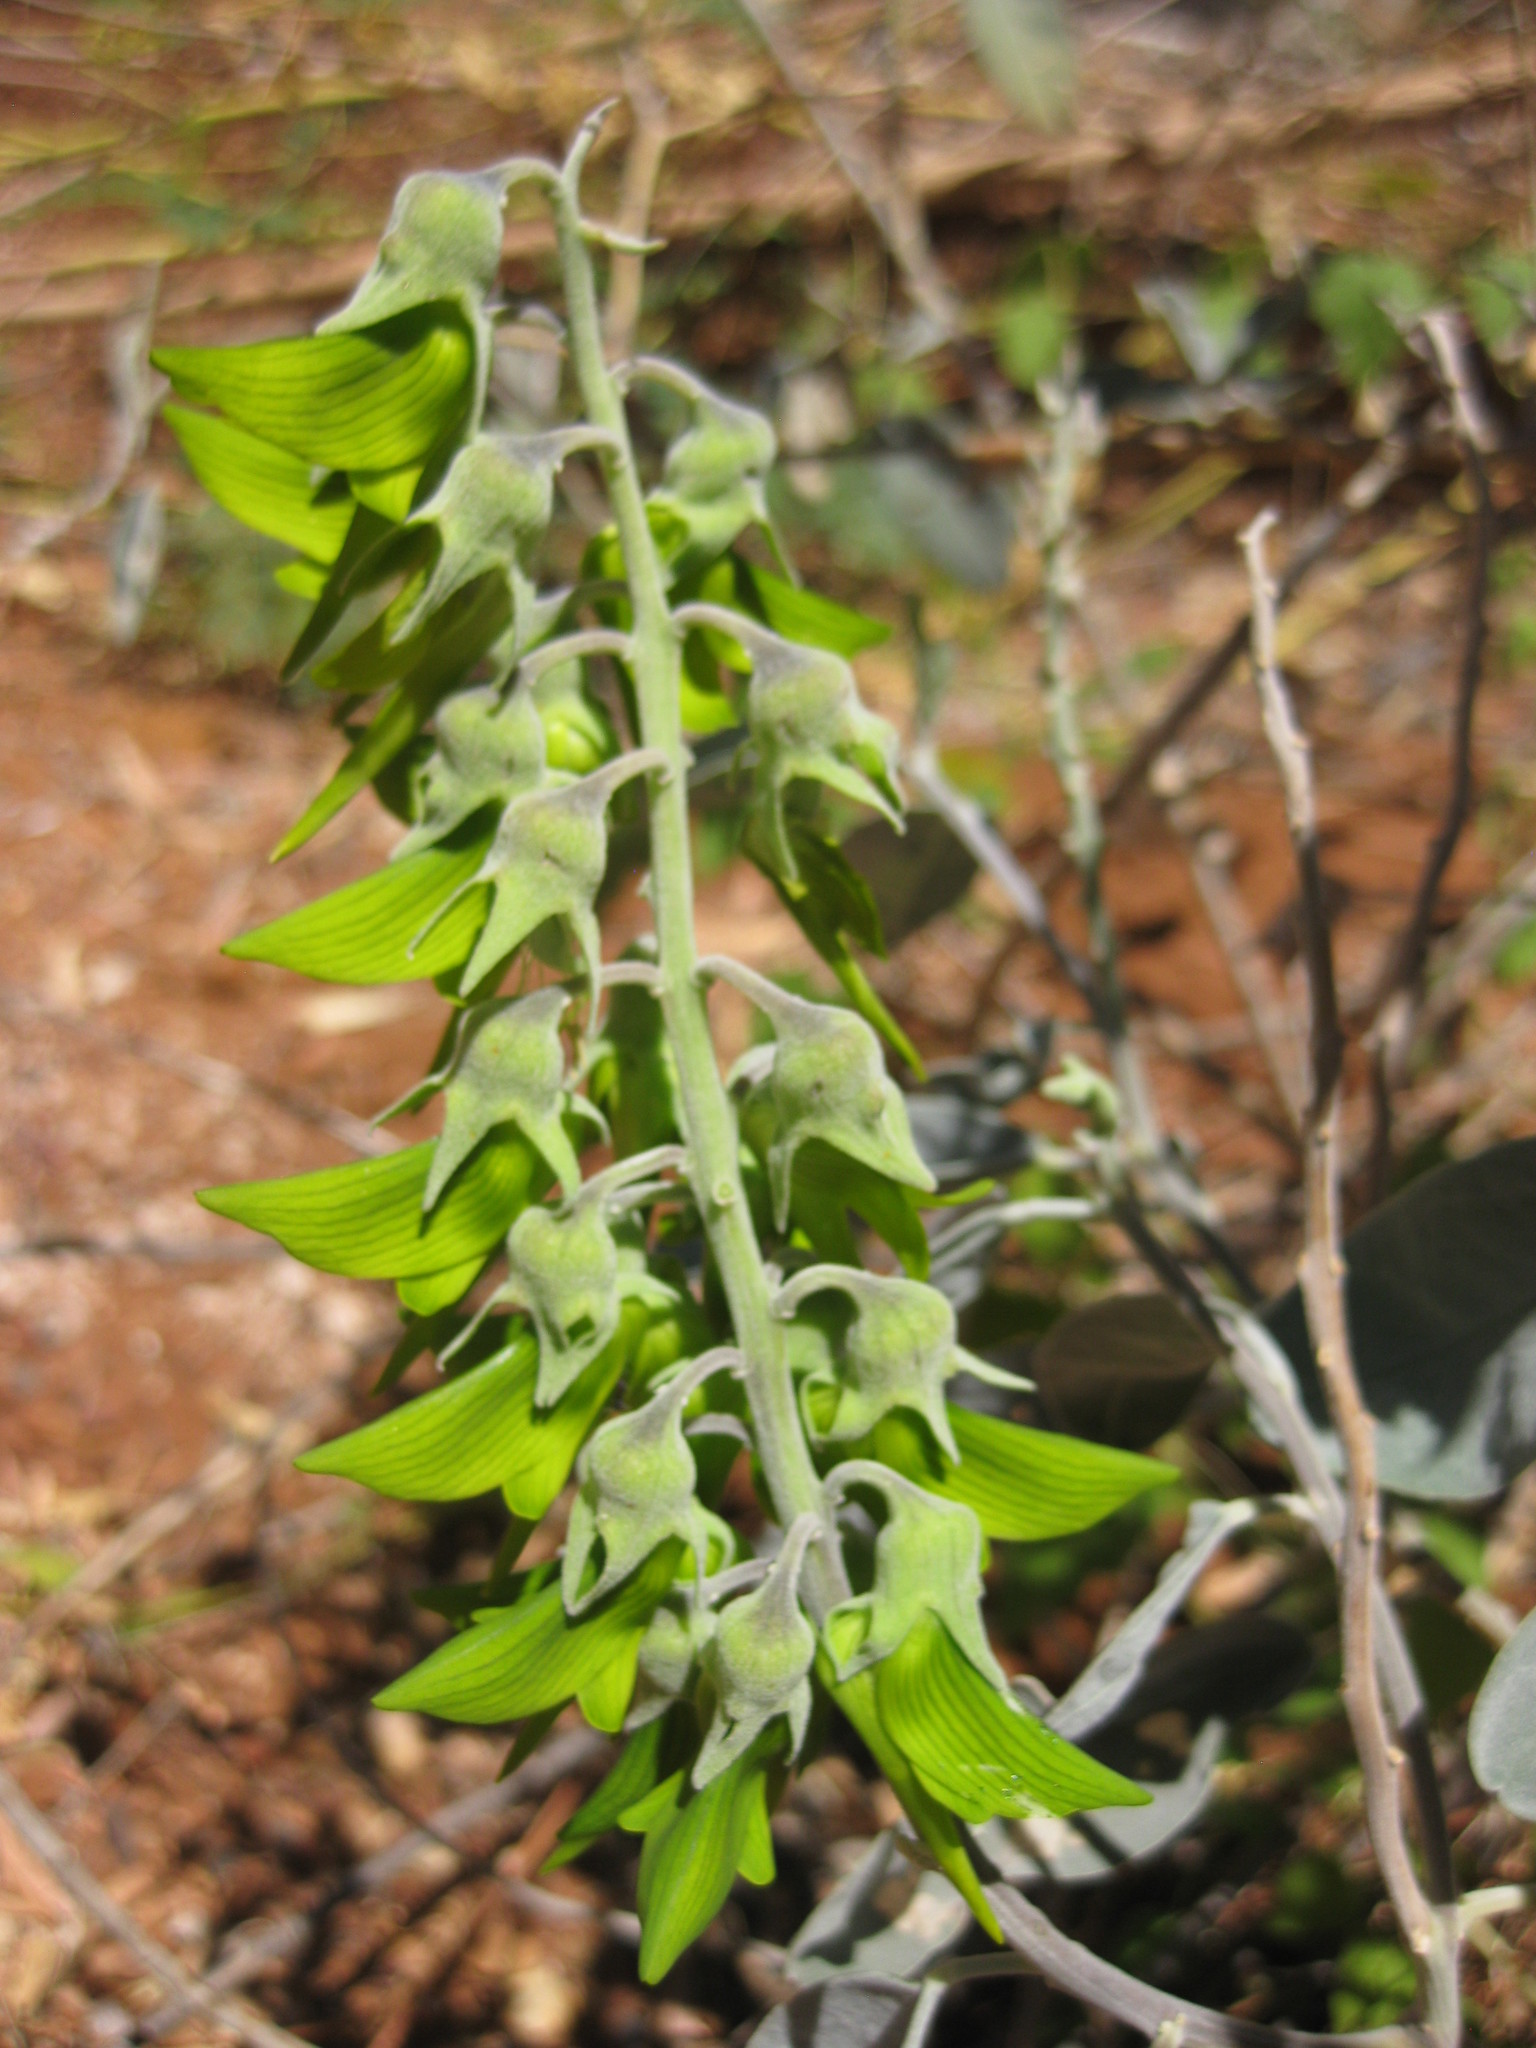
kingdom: Plantae
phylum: Tracheophyta
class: Magnoliopsida
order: Fabales
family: Fabaceae
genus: Crotalaria
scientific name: Crotalaria cunninghamii
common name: Birdflower rattlepod
